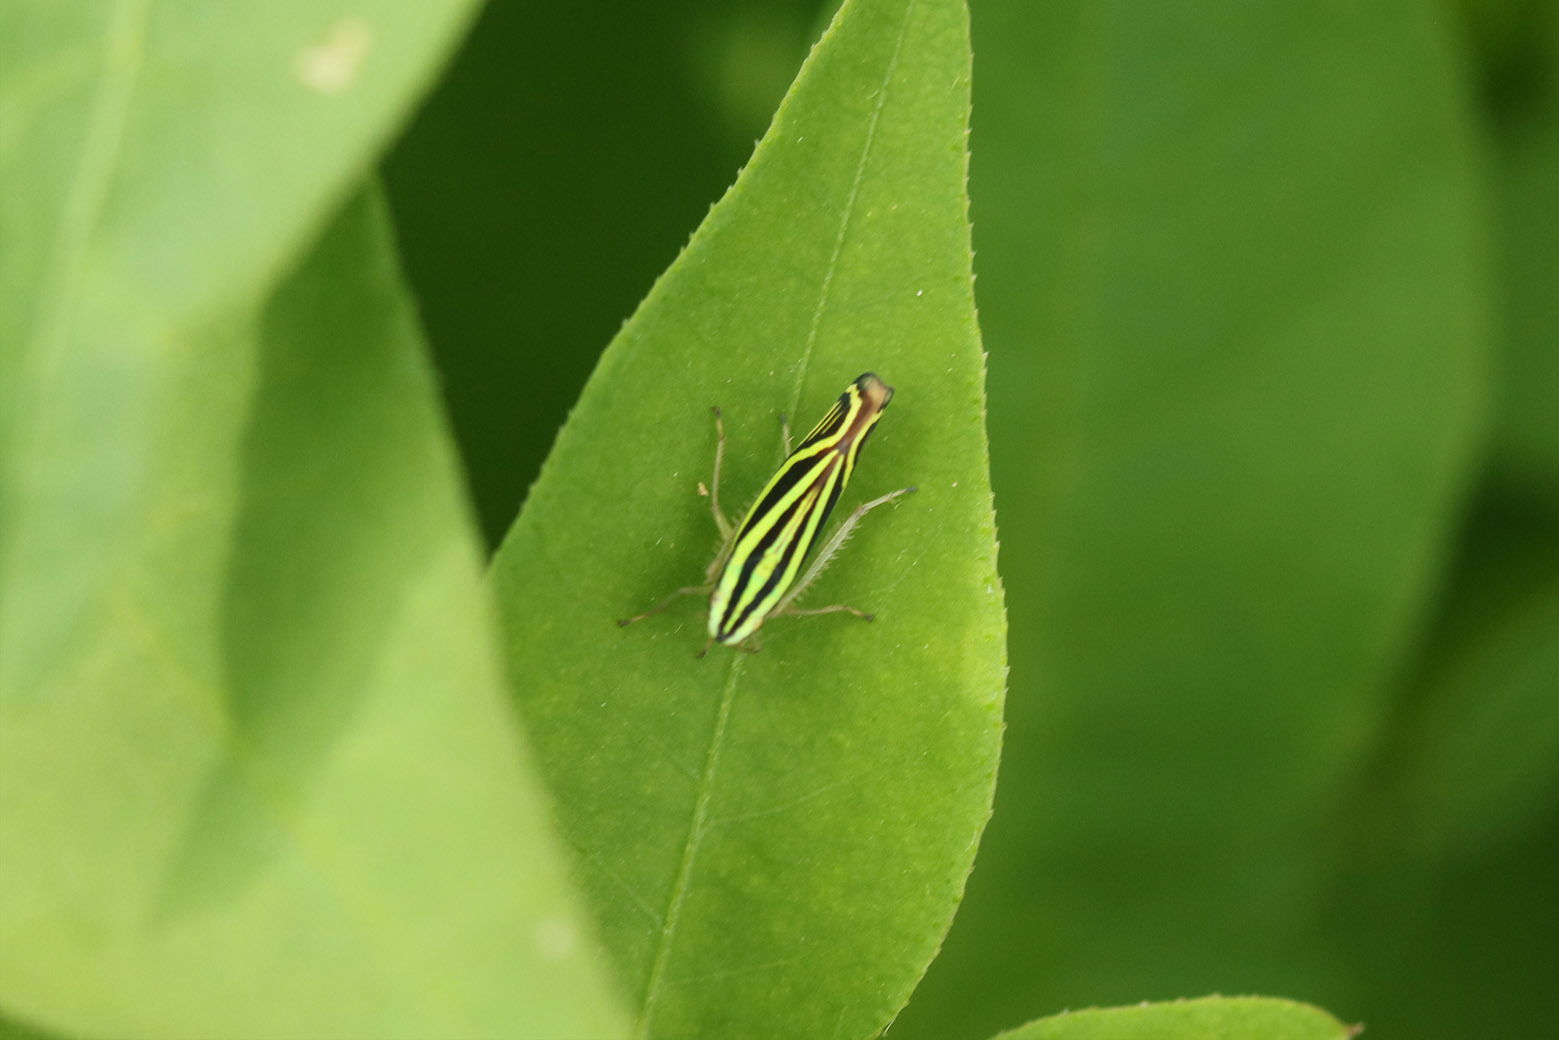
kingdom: Animalia
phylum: Arthropoda
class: Insecta
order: Hemiptera
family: Cicadellidae
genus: Sibovia
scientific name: Sibovia sagata
